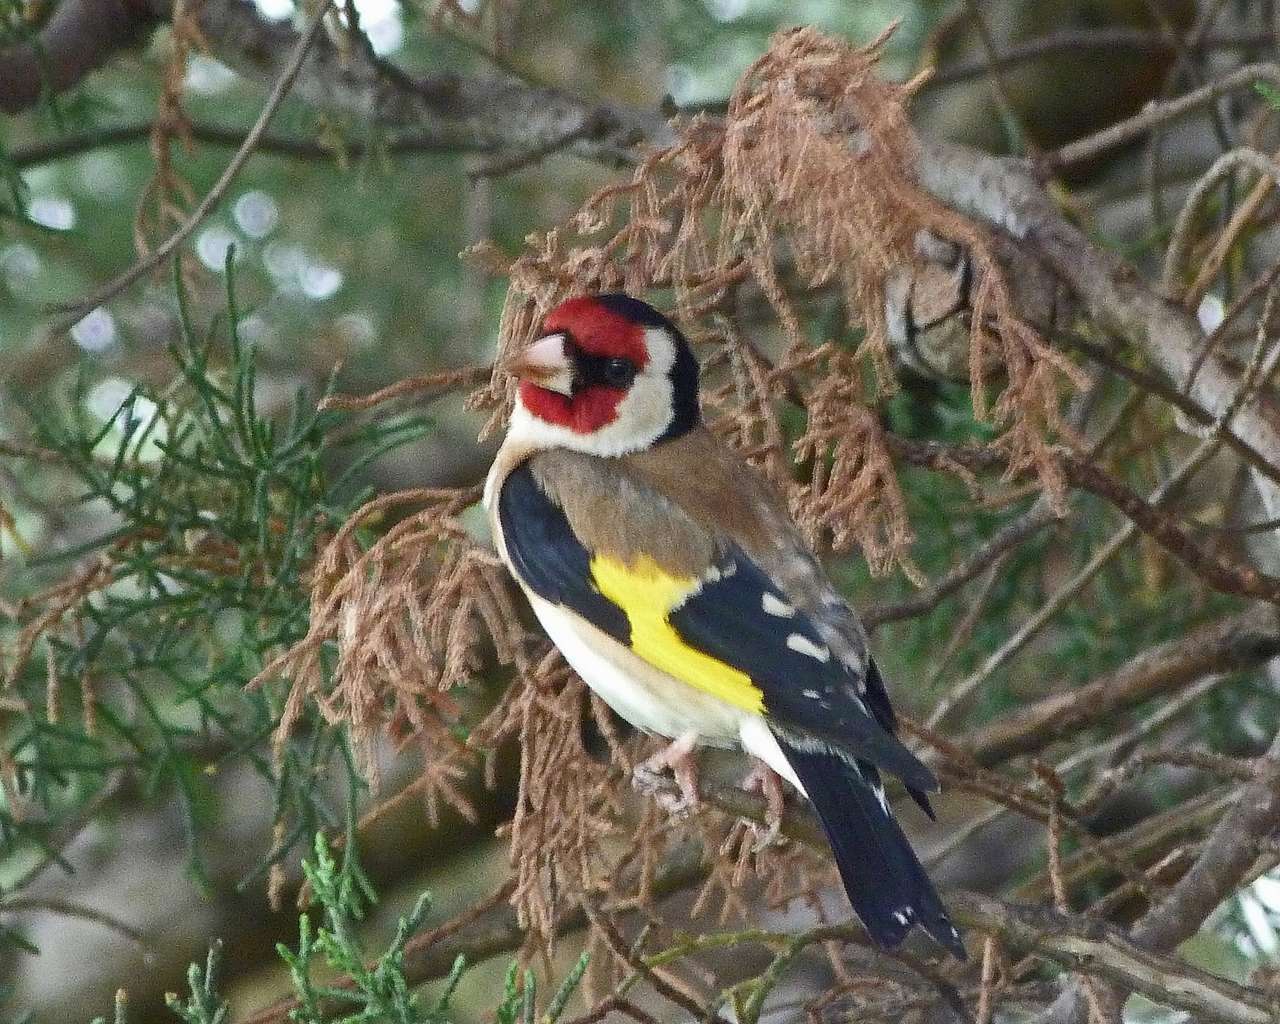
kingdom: Animalia
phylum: Chordata
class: Aves
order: Passeriformes
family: Fringillidae
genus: Carduelis
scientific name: Carduelis carduelis
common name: European goldfinch
